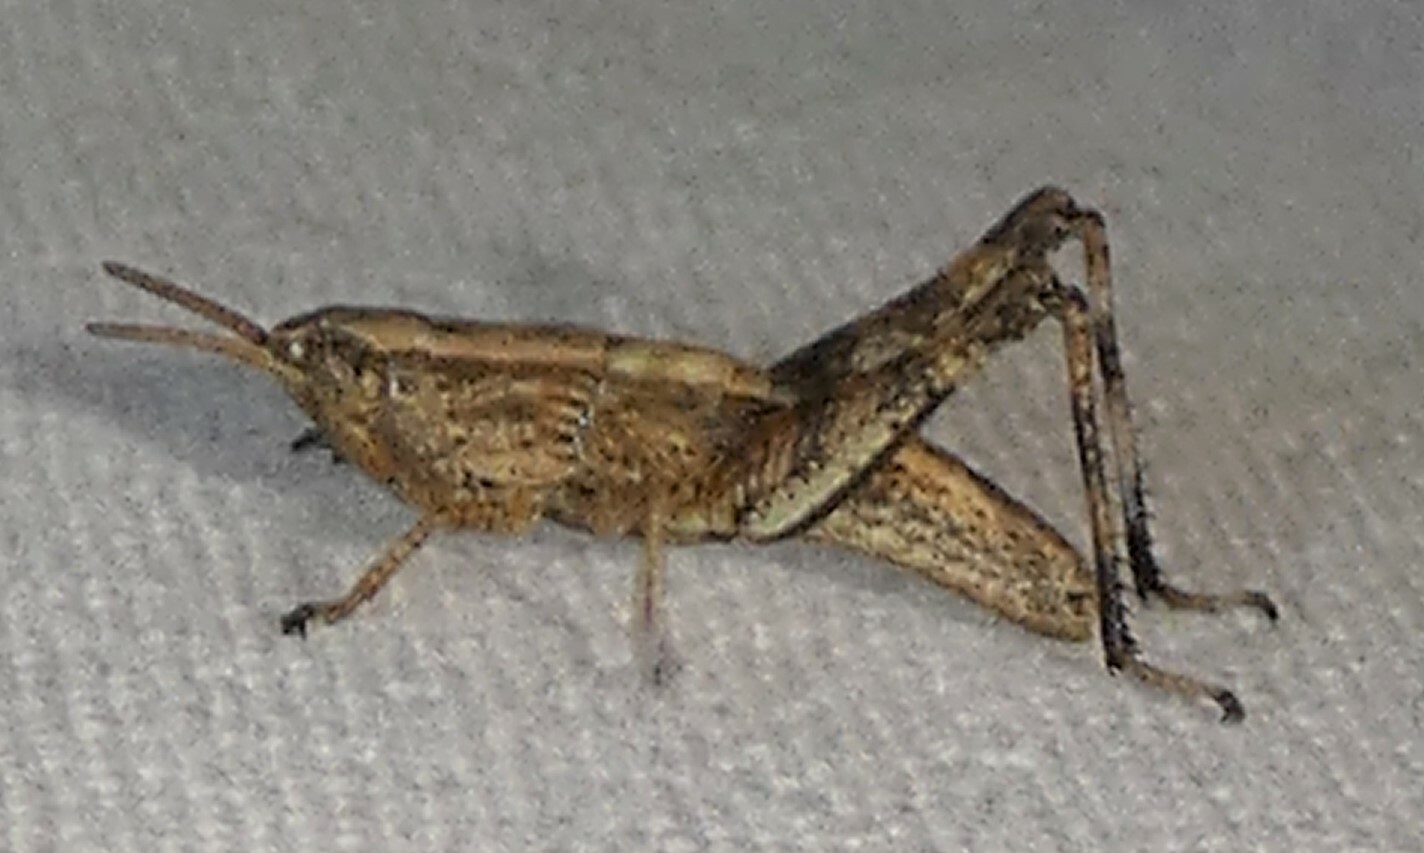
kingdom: Animalia
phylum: Arthropoda
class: Insecta
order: Orthoptera
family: Acrididae
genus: Dichromorpha
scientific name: Dichromorpha viridis
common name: Short-winged green grasshopper
